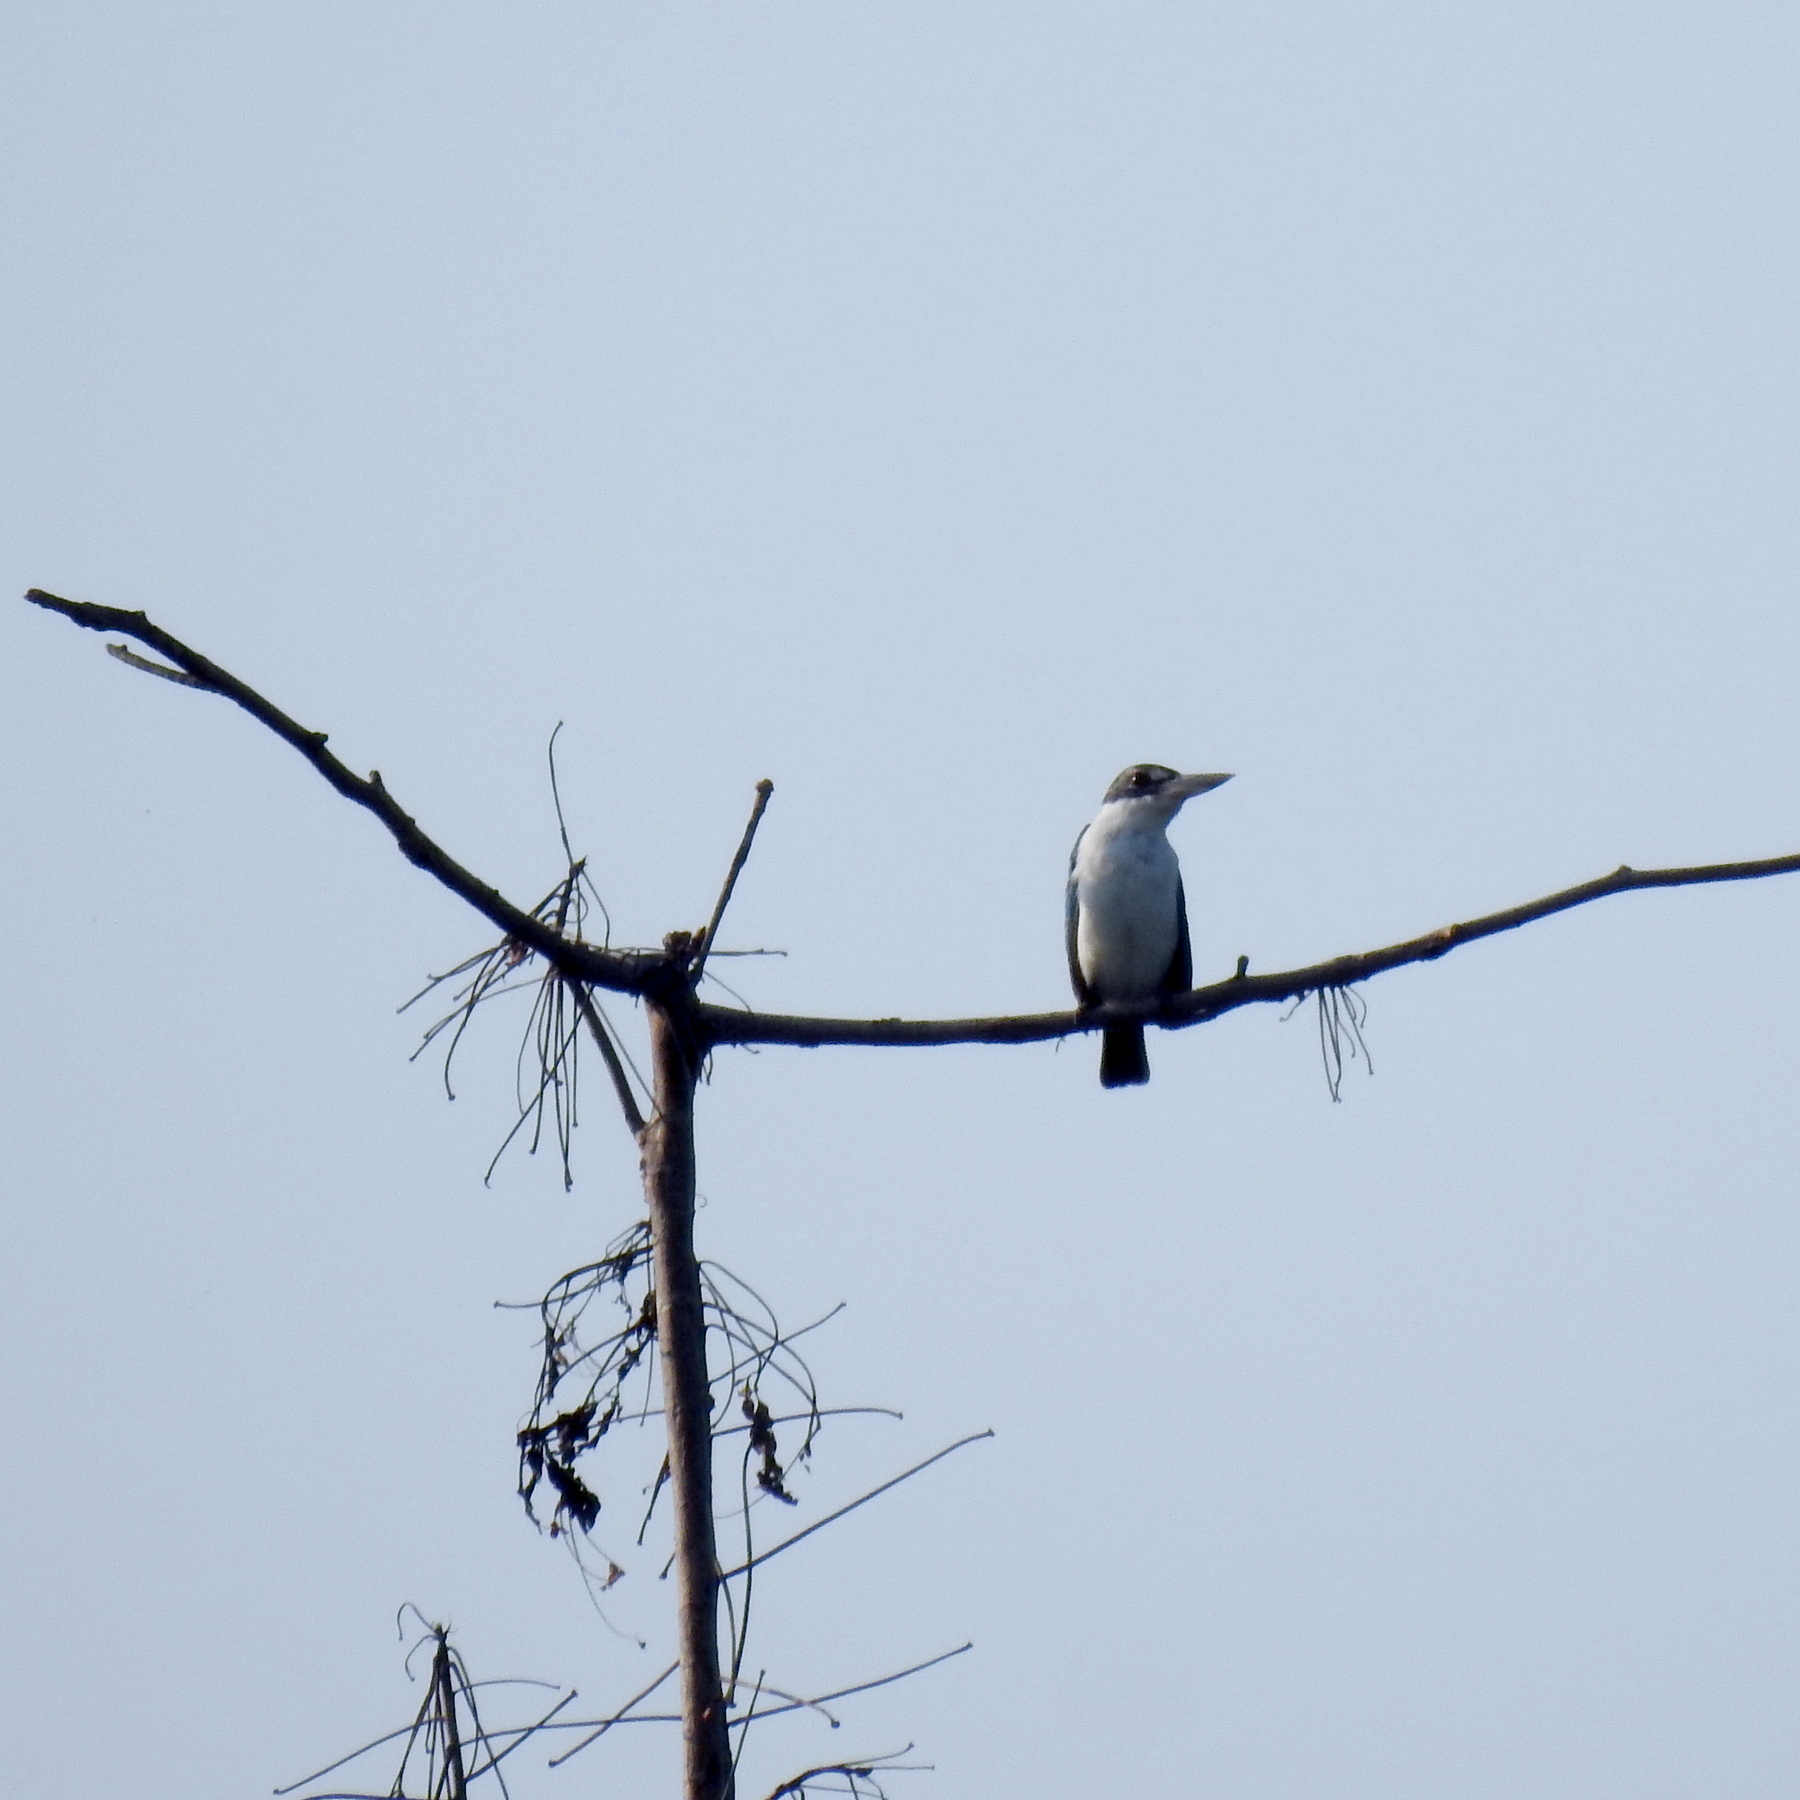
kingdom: Animalia
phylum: Chordata
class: Aves
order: Coraciiformes
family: Alcedinidae
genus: Todiramphus
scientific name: Todiramphus chloris
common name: Collared kingfisher
